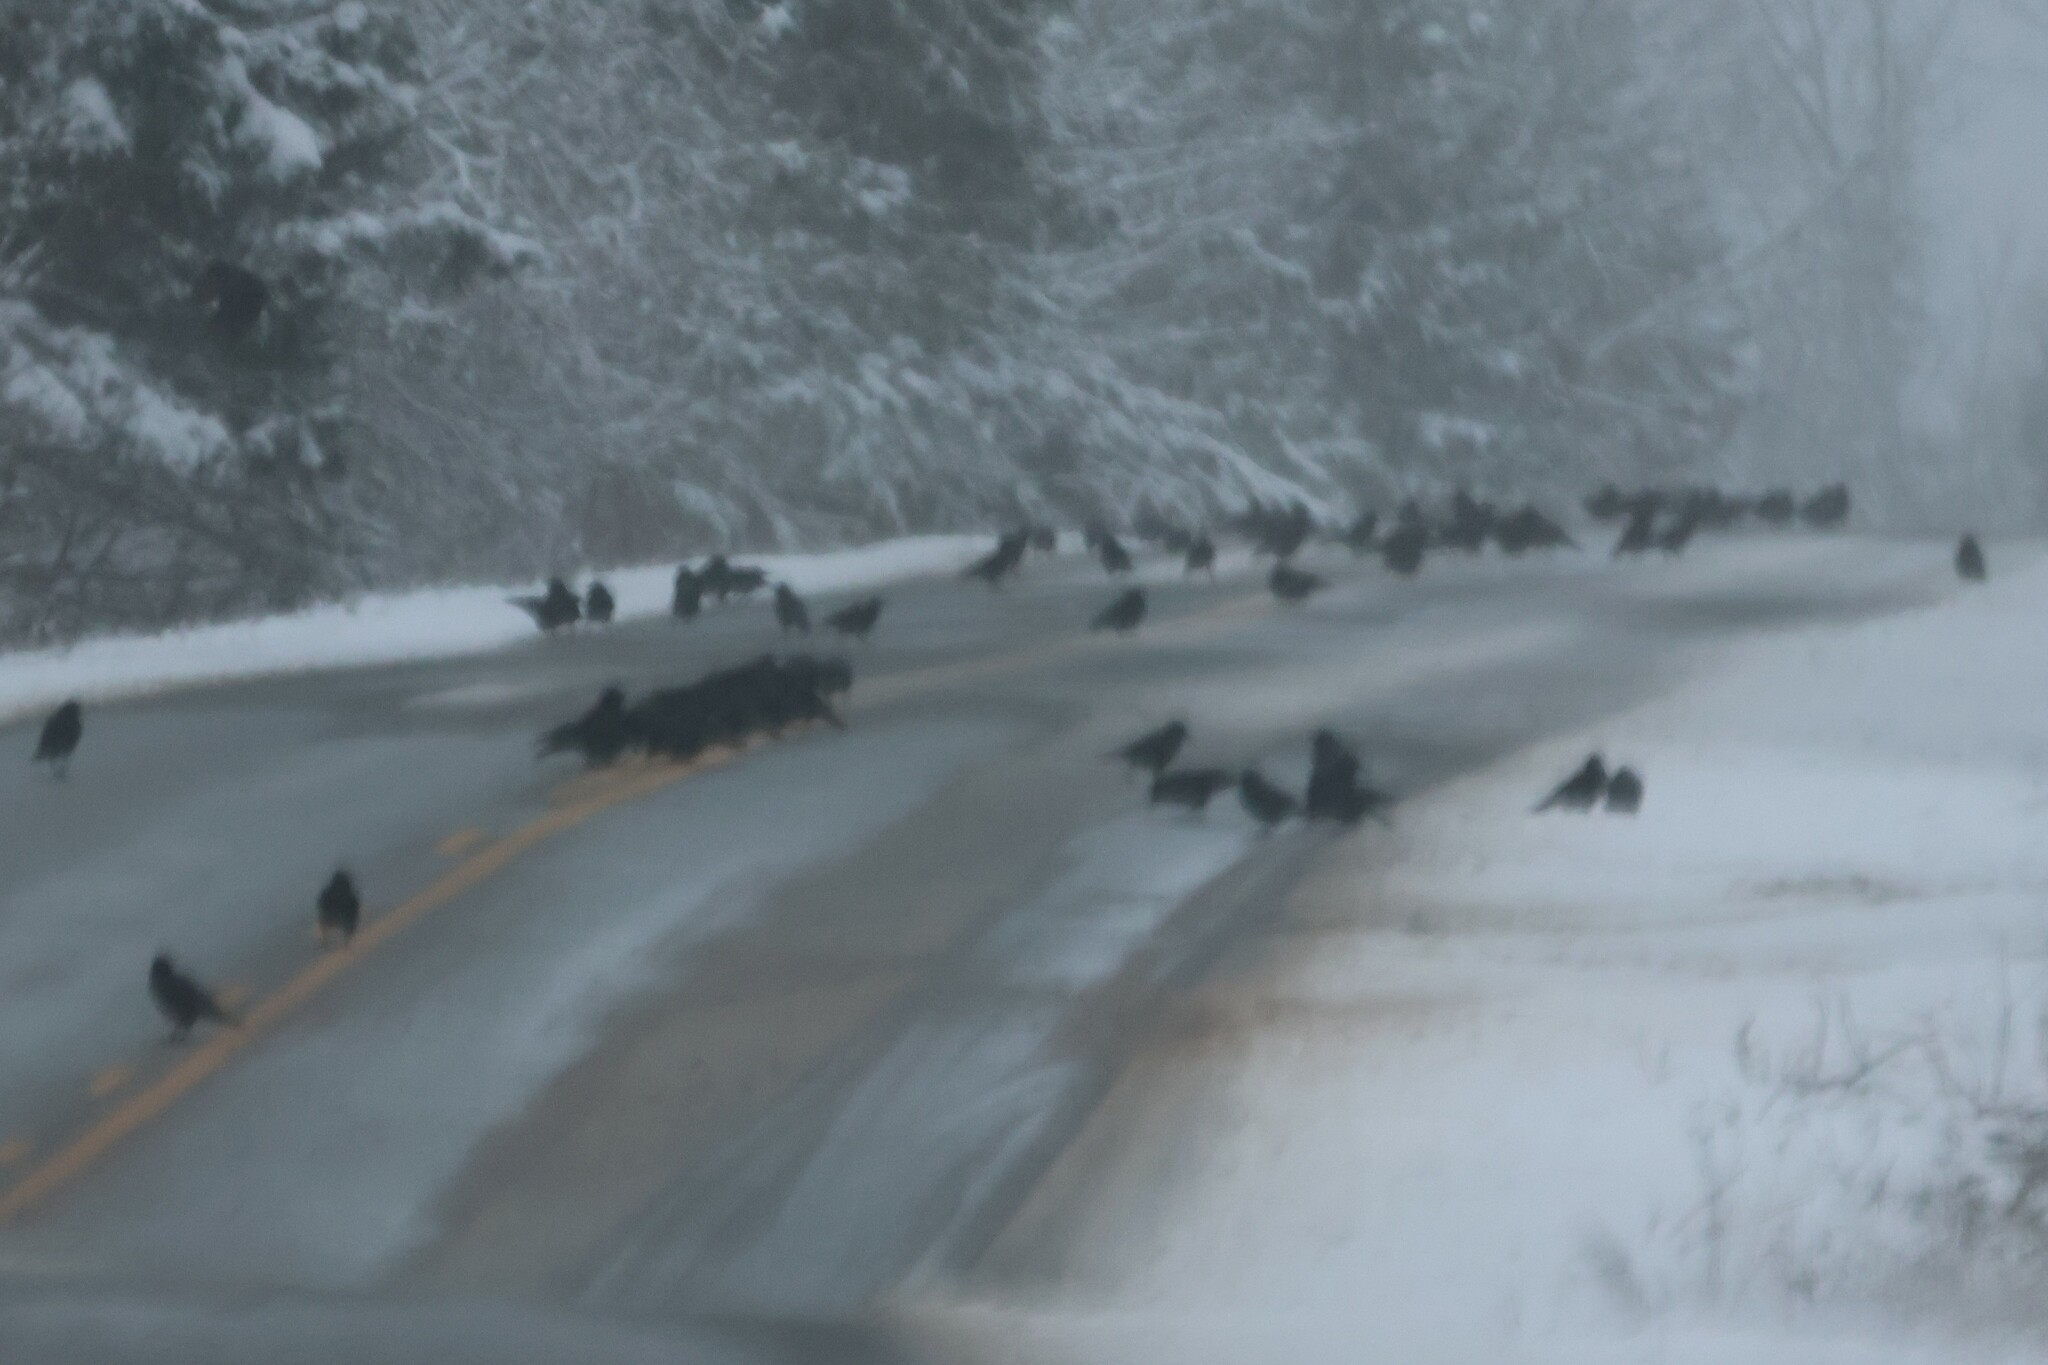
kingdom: Animalia
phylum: Chordata
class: Aves
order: Passeriformes
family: Corvidae
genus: Corvus
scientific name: Corvus brachyrhynchos
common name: American crow
